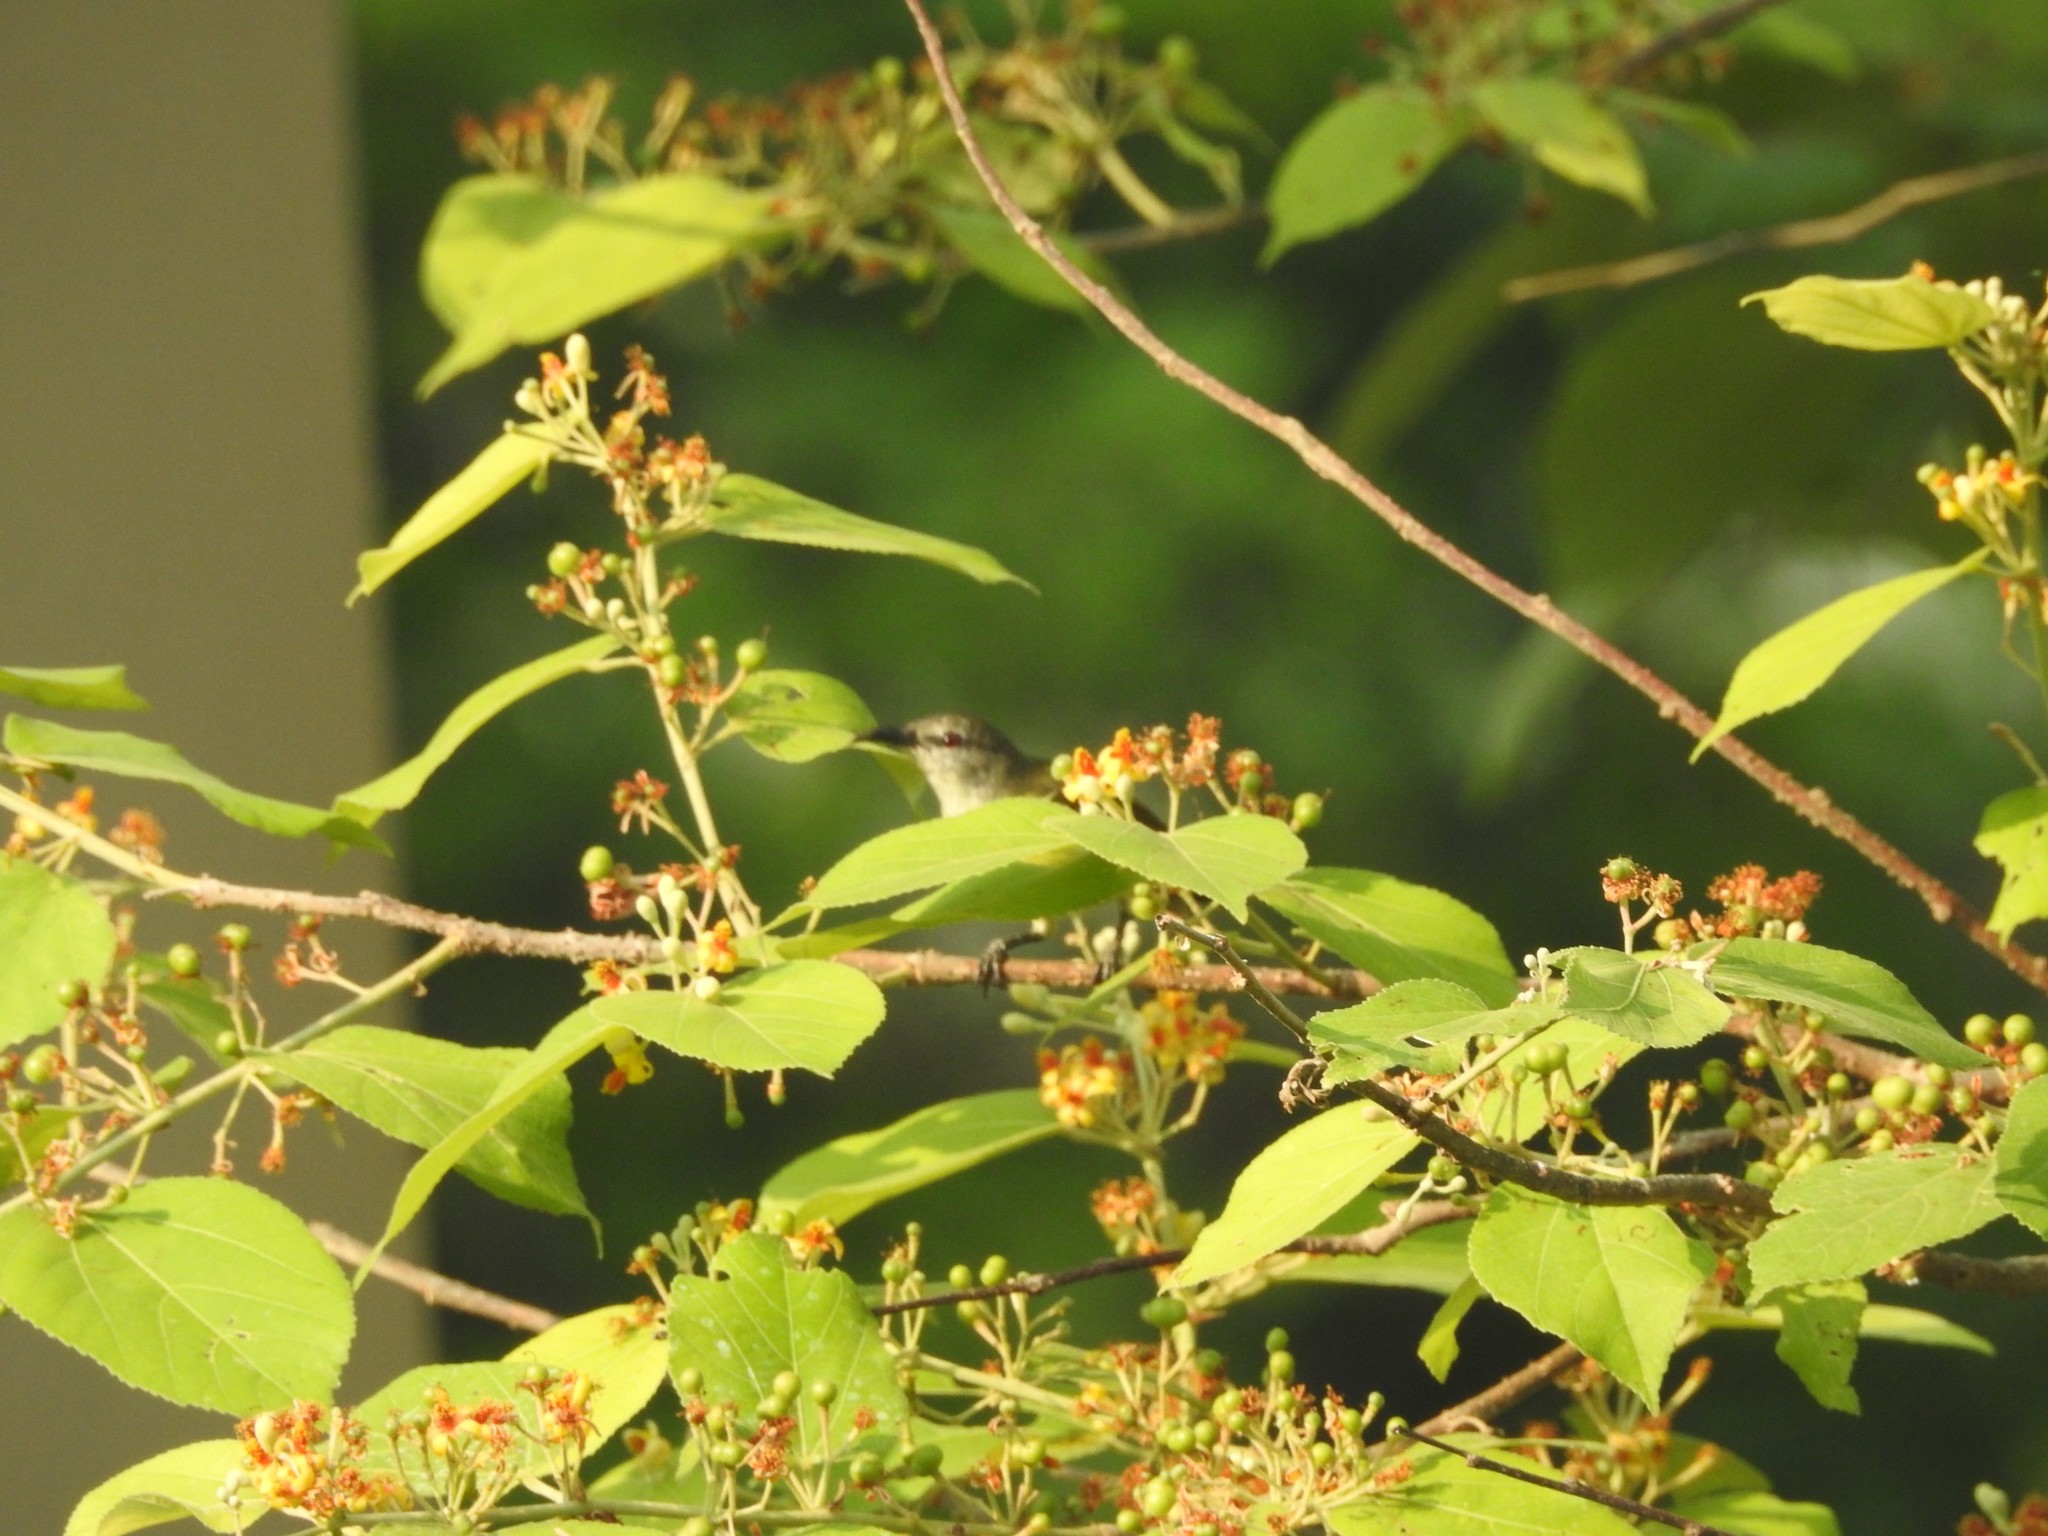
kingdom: Animalia
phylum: Chordata
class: Aves
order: Passeriformes
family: Nectariniidae
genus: Leptocoma
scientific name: Leptocoma zeylonica
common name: Purple-rumped sunbird
